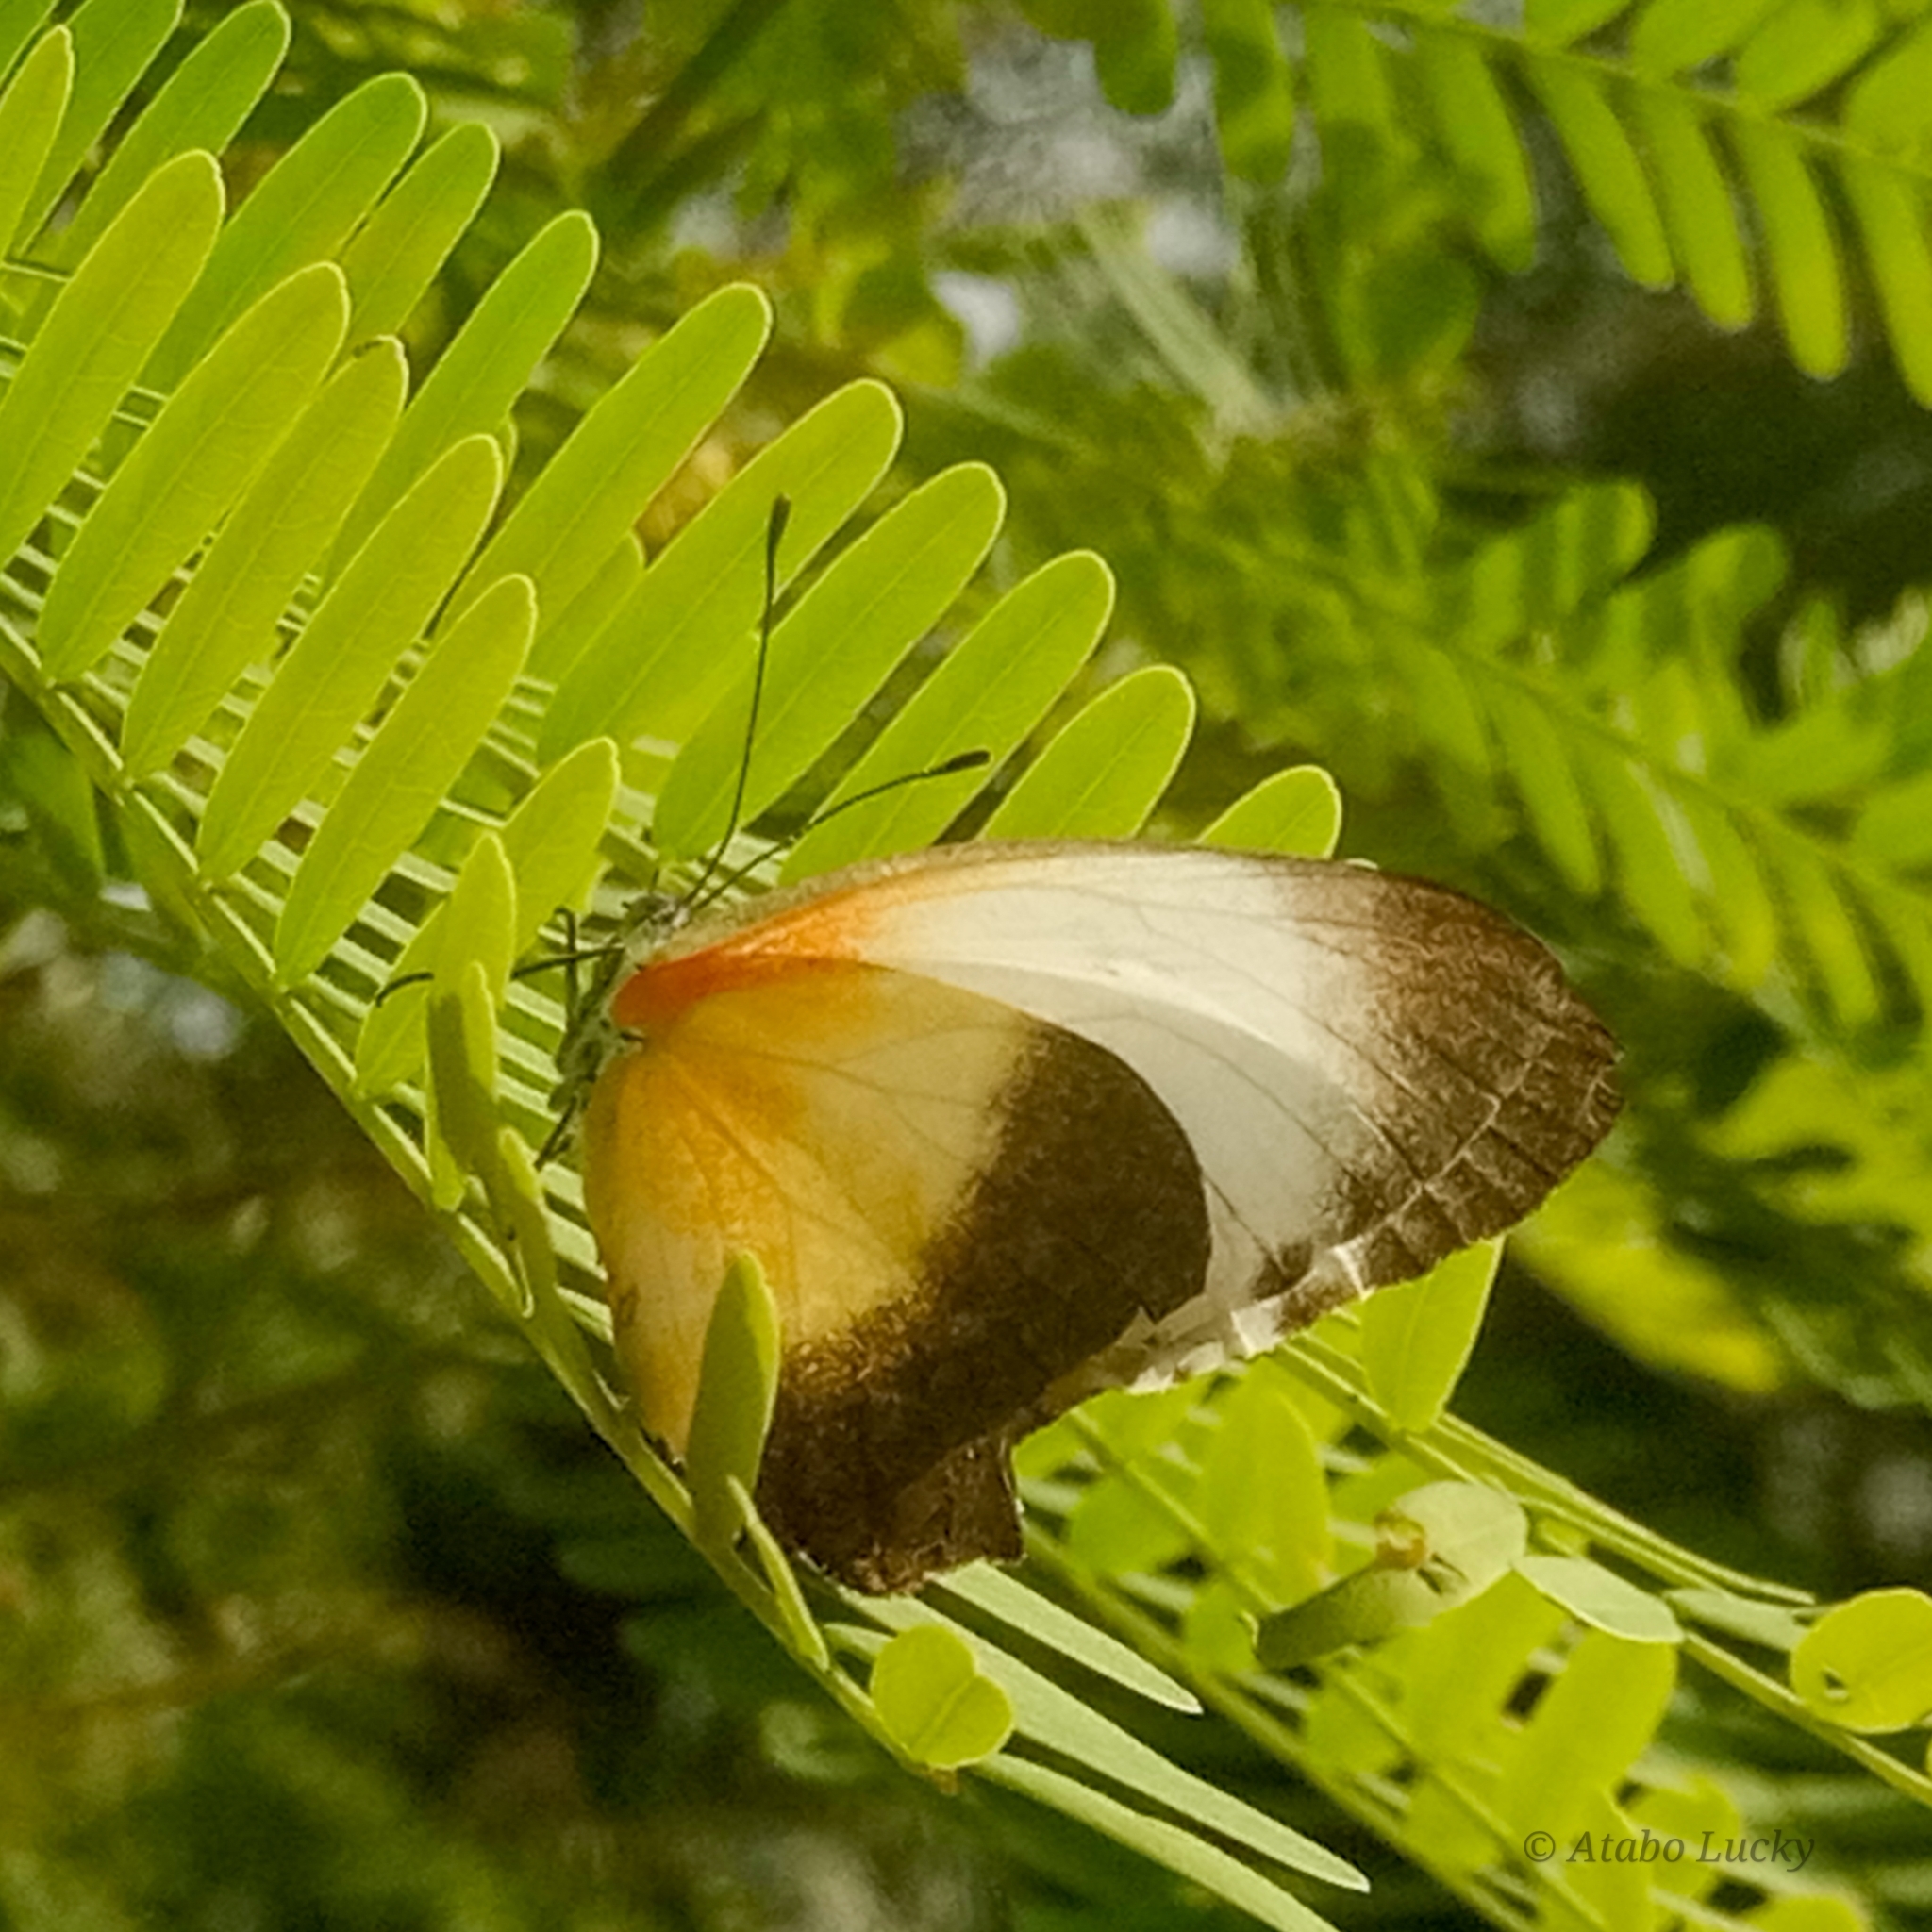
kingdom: Animalia
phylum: Arthropoda
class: Insecta
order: Lepidoptera
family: Pieridae
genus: Mylothris
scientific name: Mylothris chloris
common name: Western dotted border
